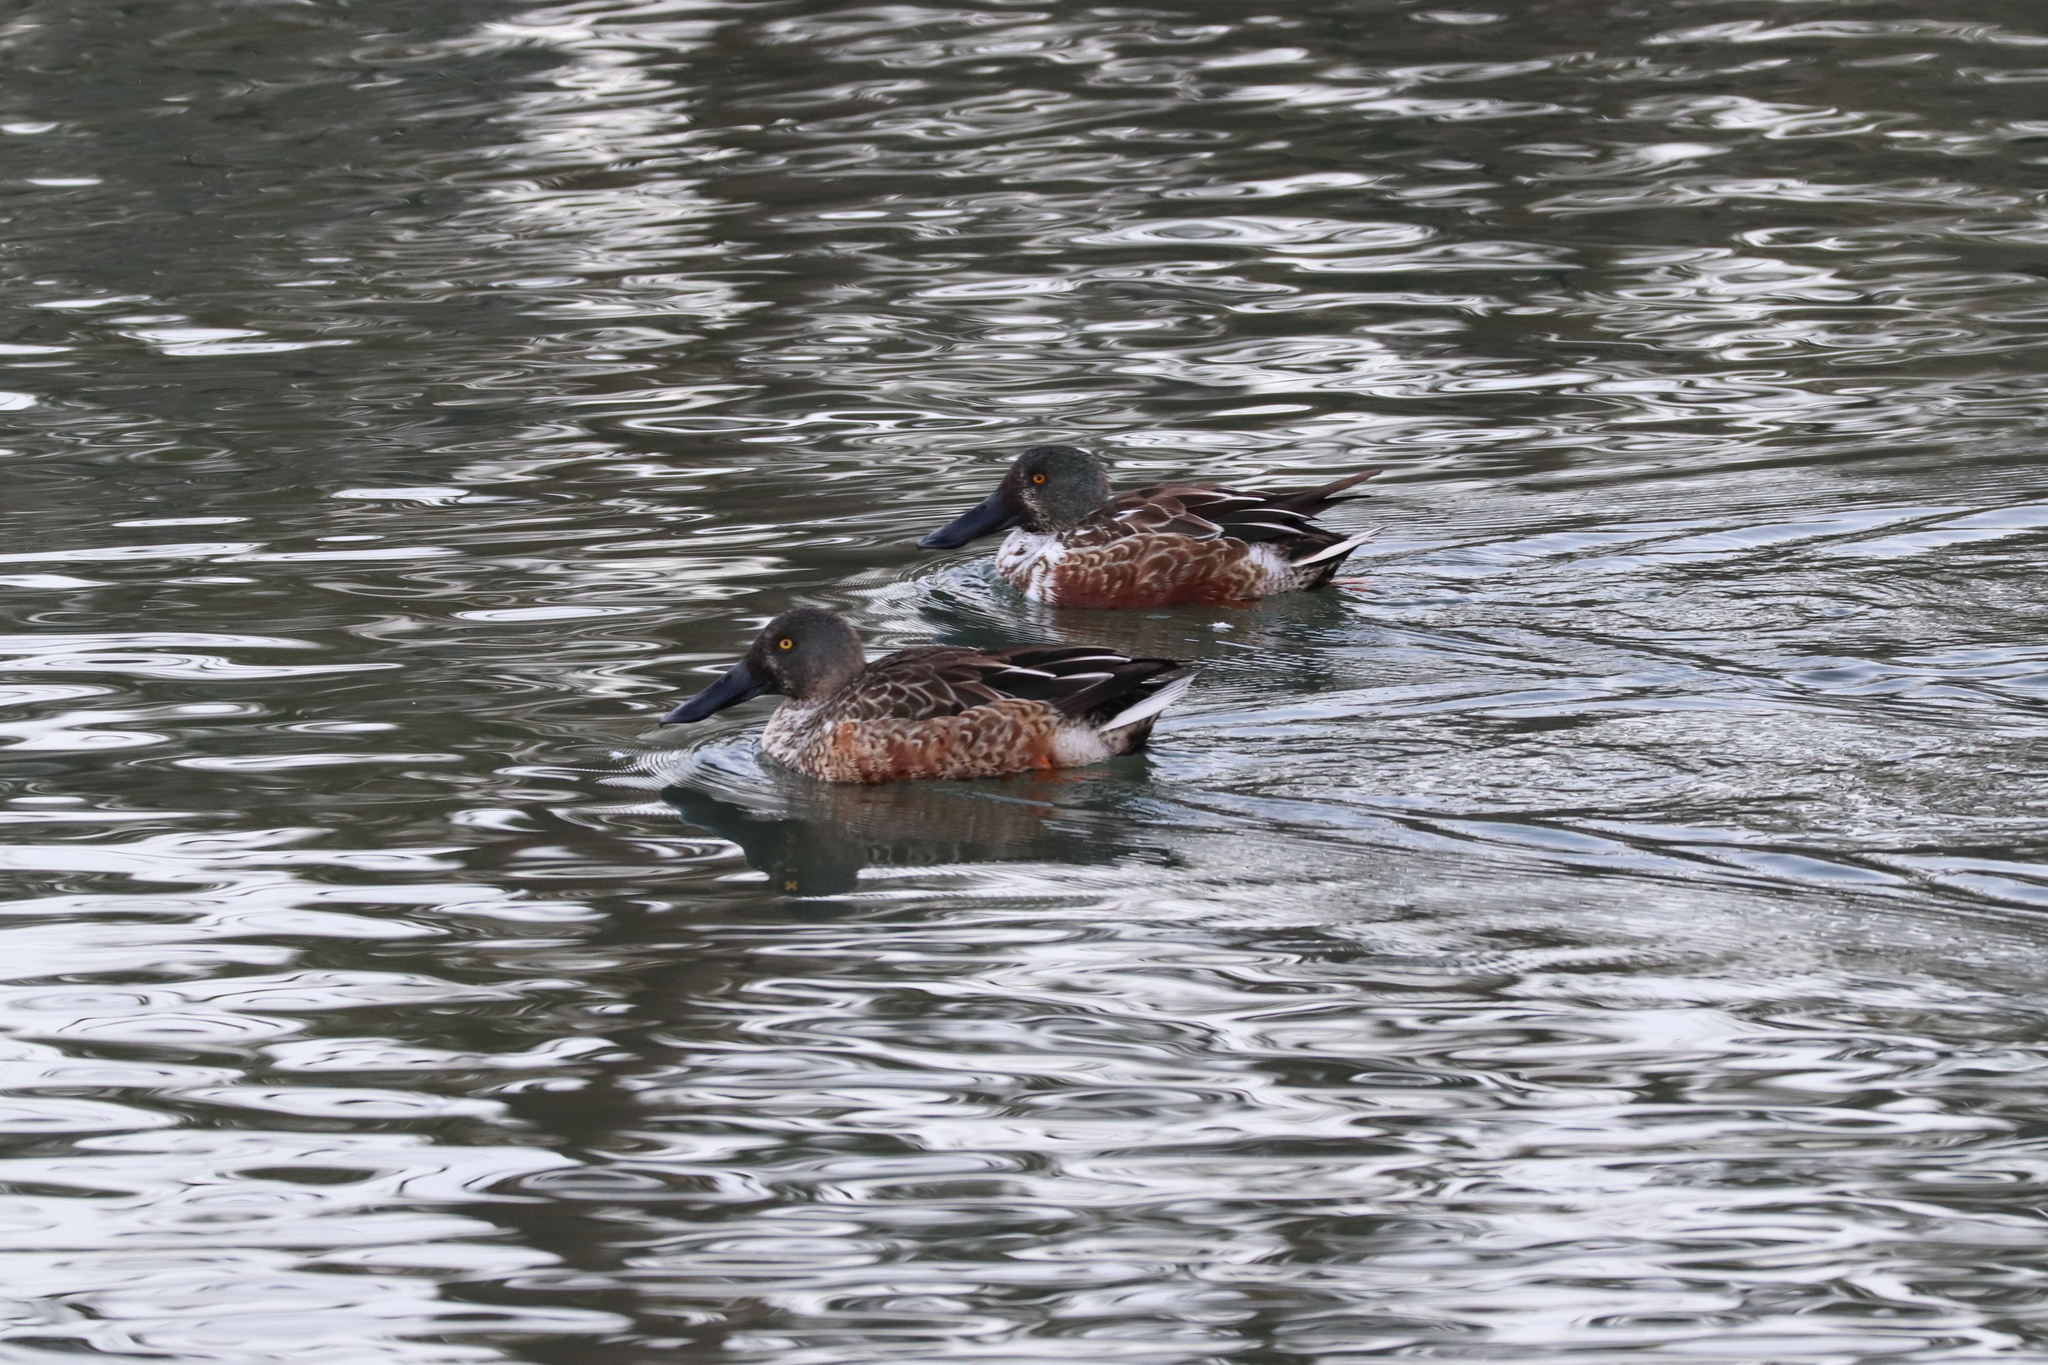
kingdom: Animalia
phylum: Chordata
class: Aves
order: Anseriformes
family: Anatidae
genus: Spatula
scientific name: Spatula clypeata
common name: Northern shoveler
